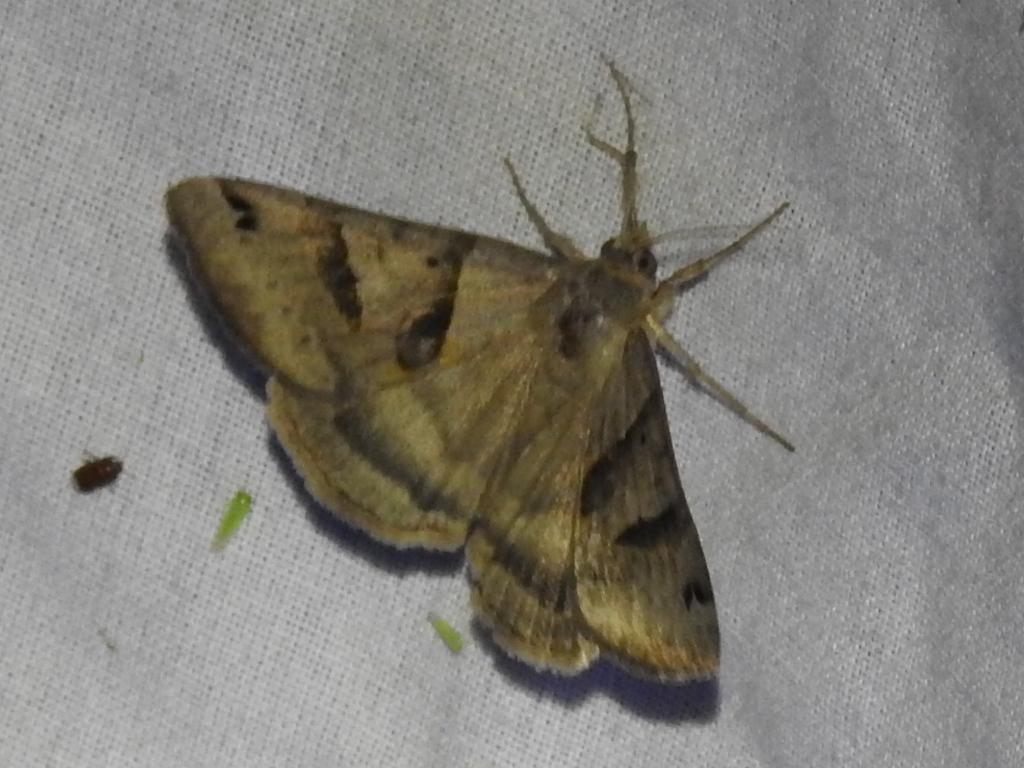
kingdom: Animalia
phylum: Arthropoda
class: Insecta
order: Lepidoptera
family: Erebidae
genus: Caenurgina
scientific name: Caenurgina erechtea
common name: Forage looper moth
